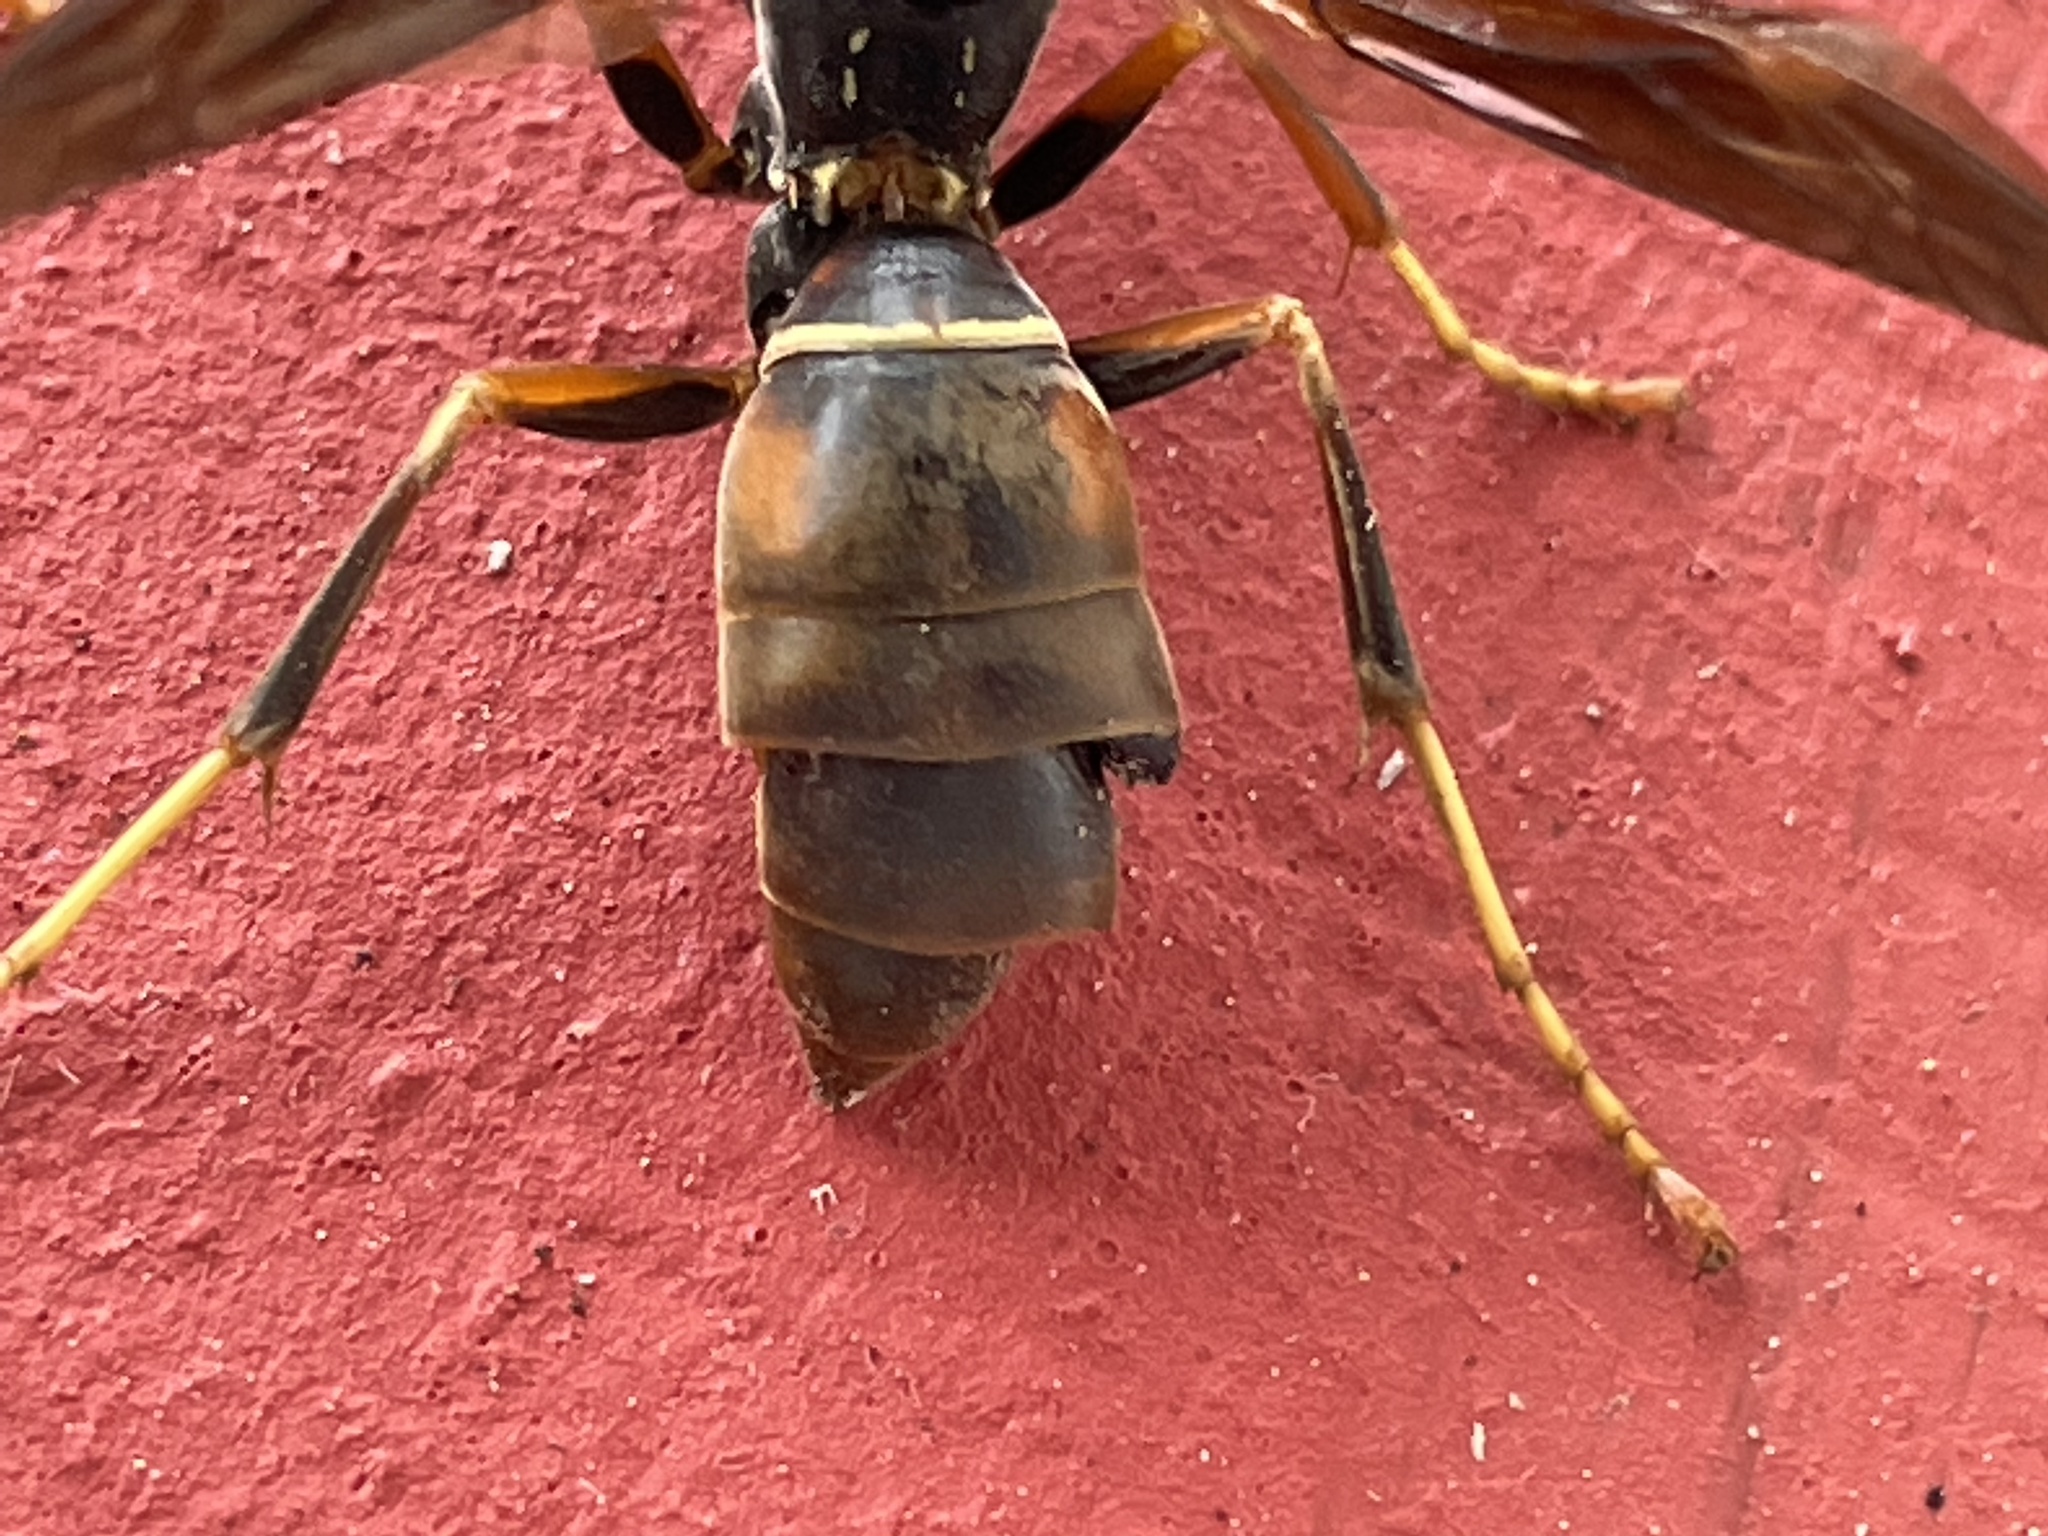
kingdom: Animalia
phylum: Arthropoda
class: Insecta
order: Strepsiptera
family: Xenidae
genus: Xenos
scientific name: Xenos pecki
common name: Twisted wing parasite
